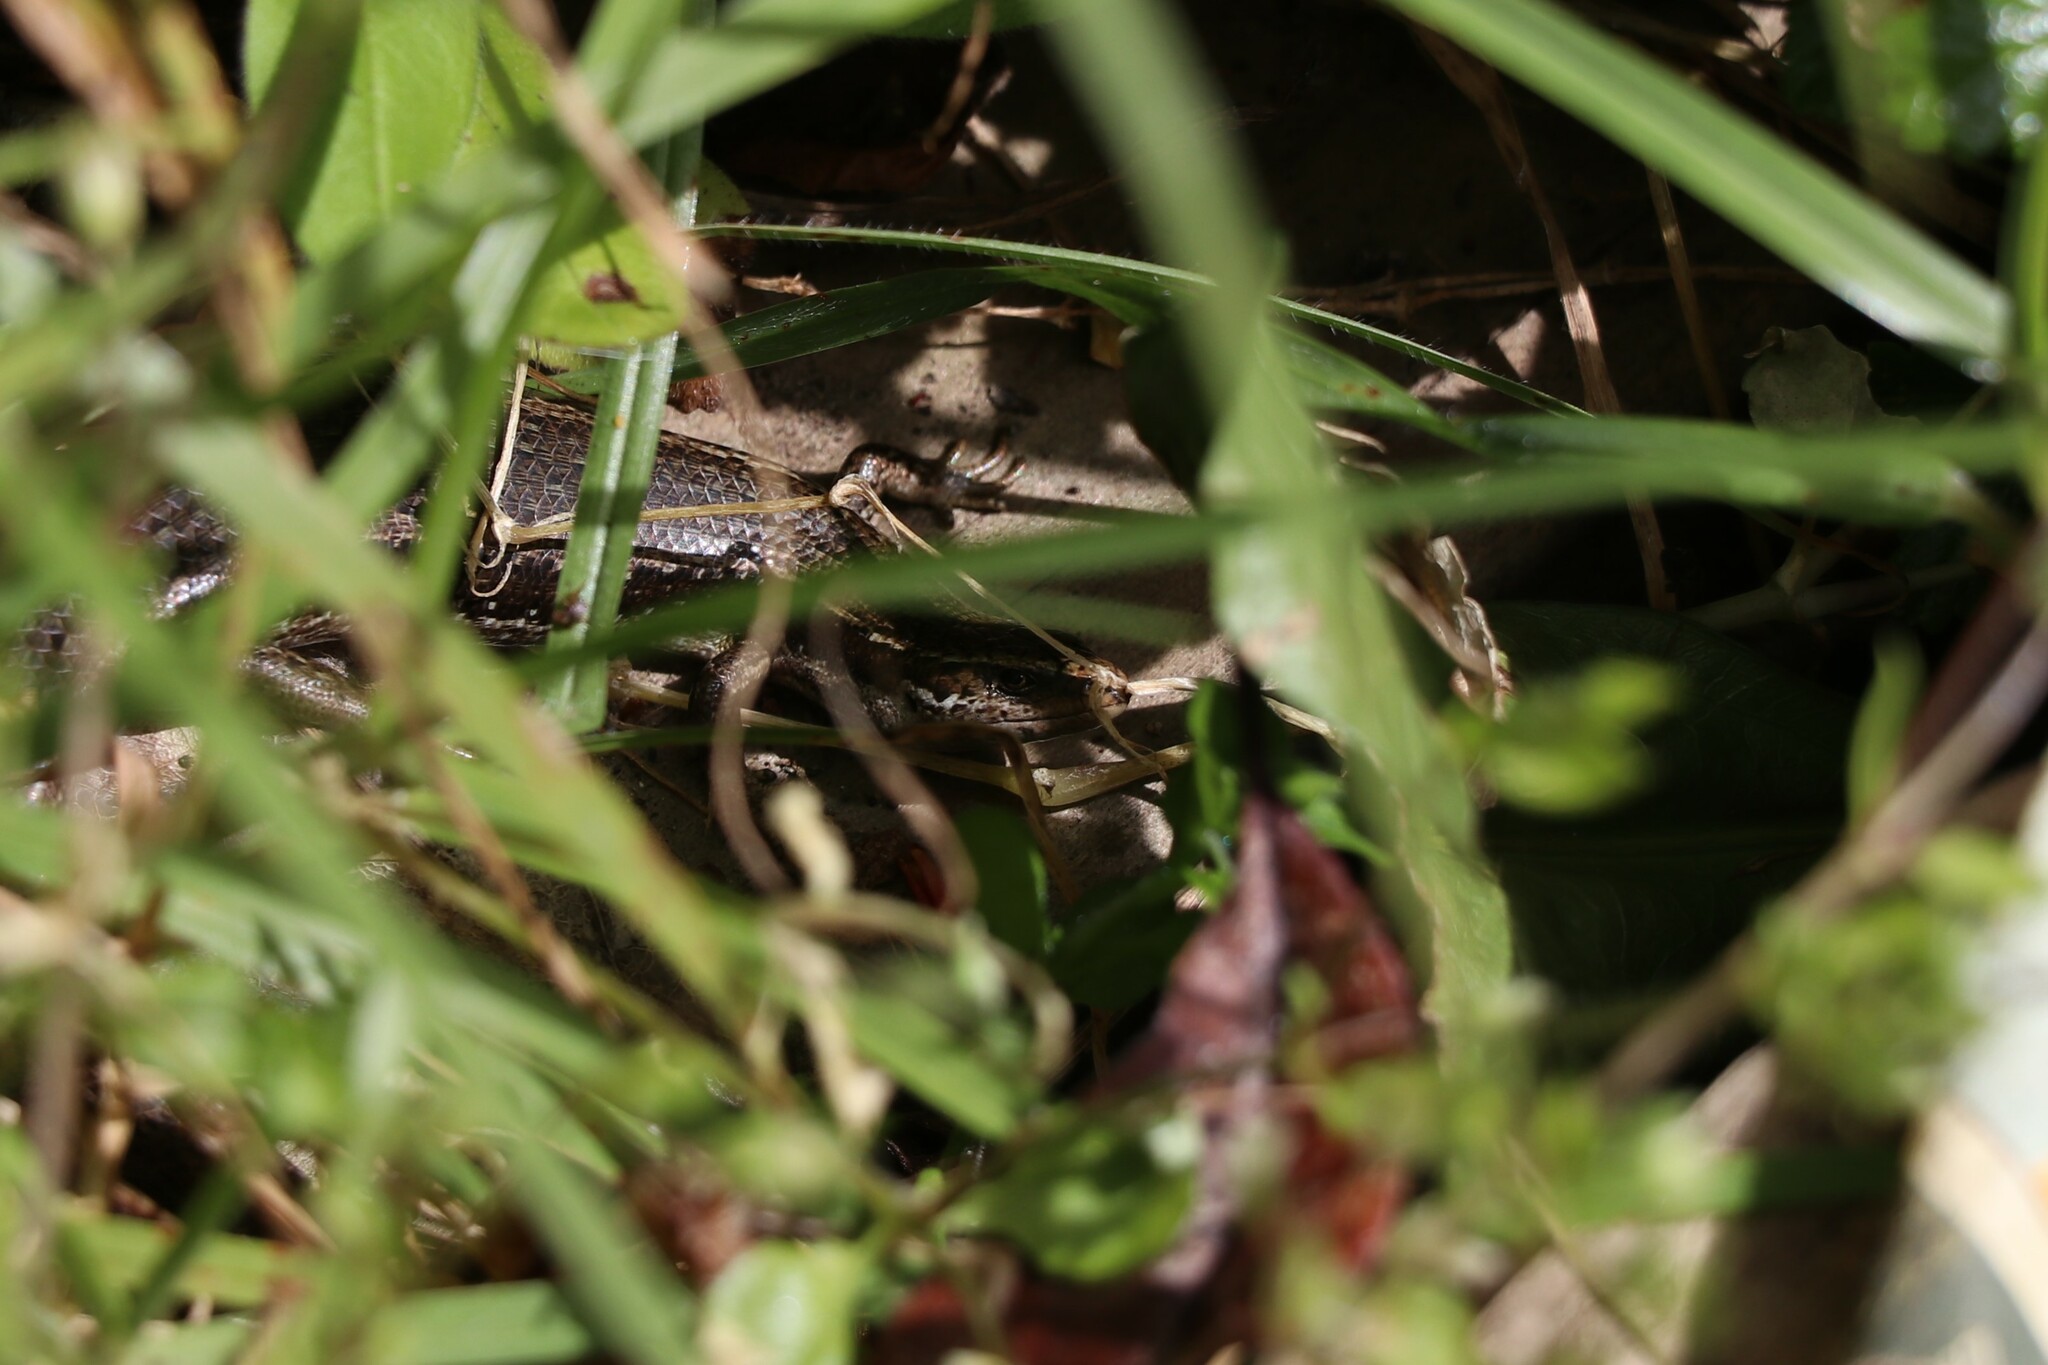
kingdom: Animalia
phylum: Chordata
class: Squamata
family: Scincidae
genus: Oligosoma
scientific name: Oligosoma polychroma
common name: Common new zealand skink
